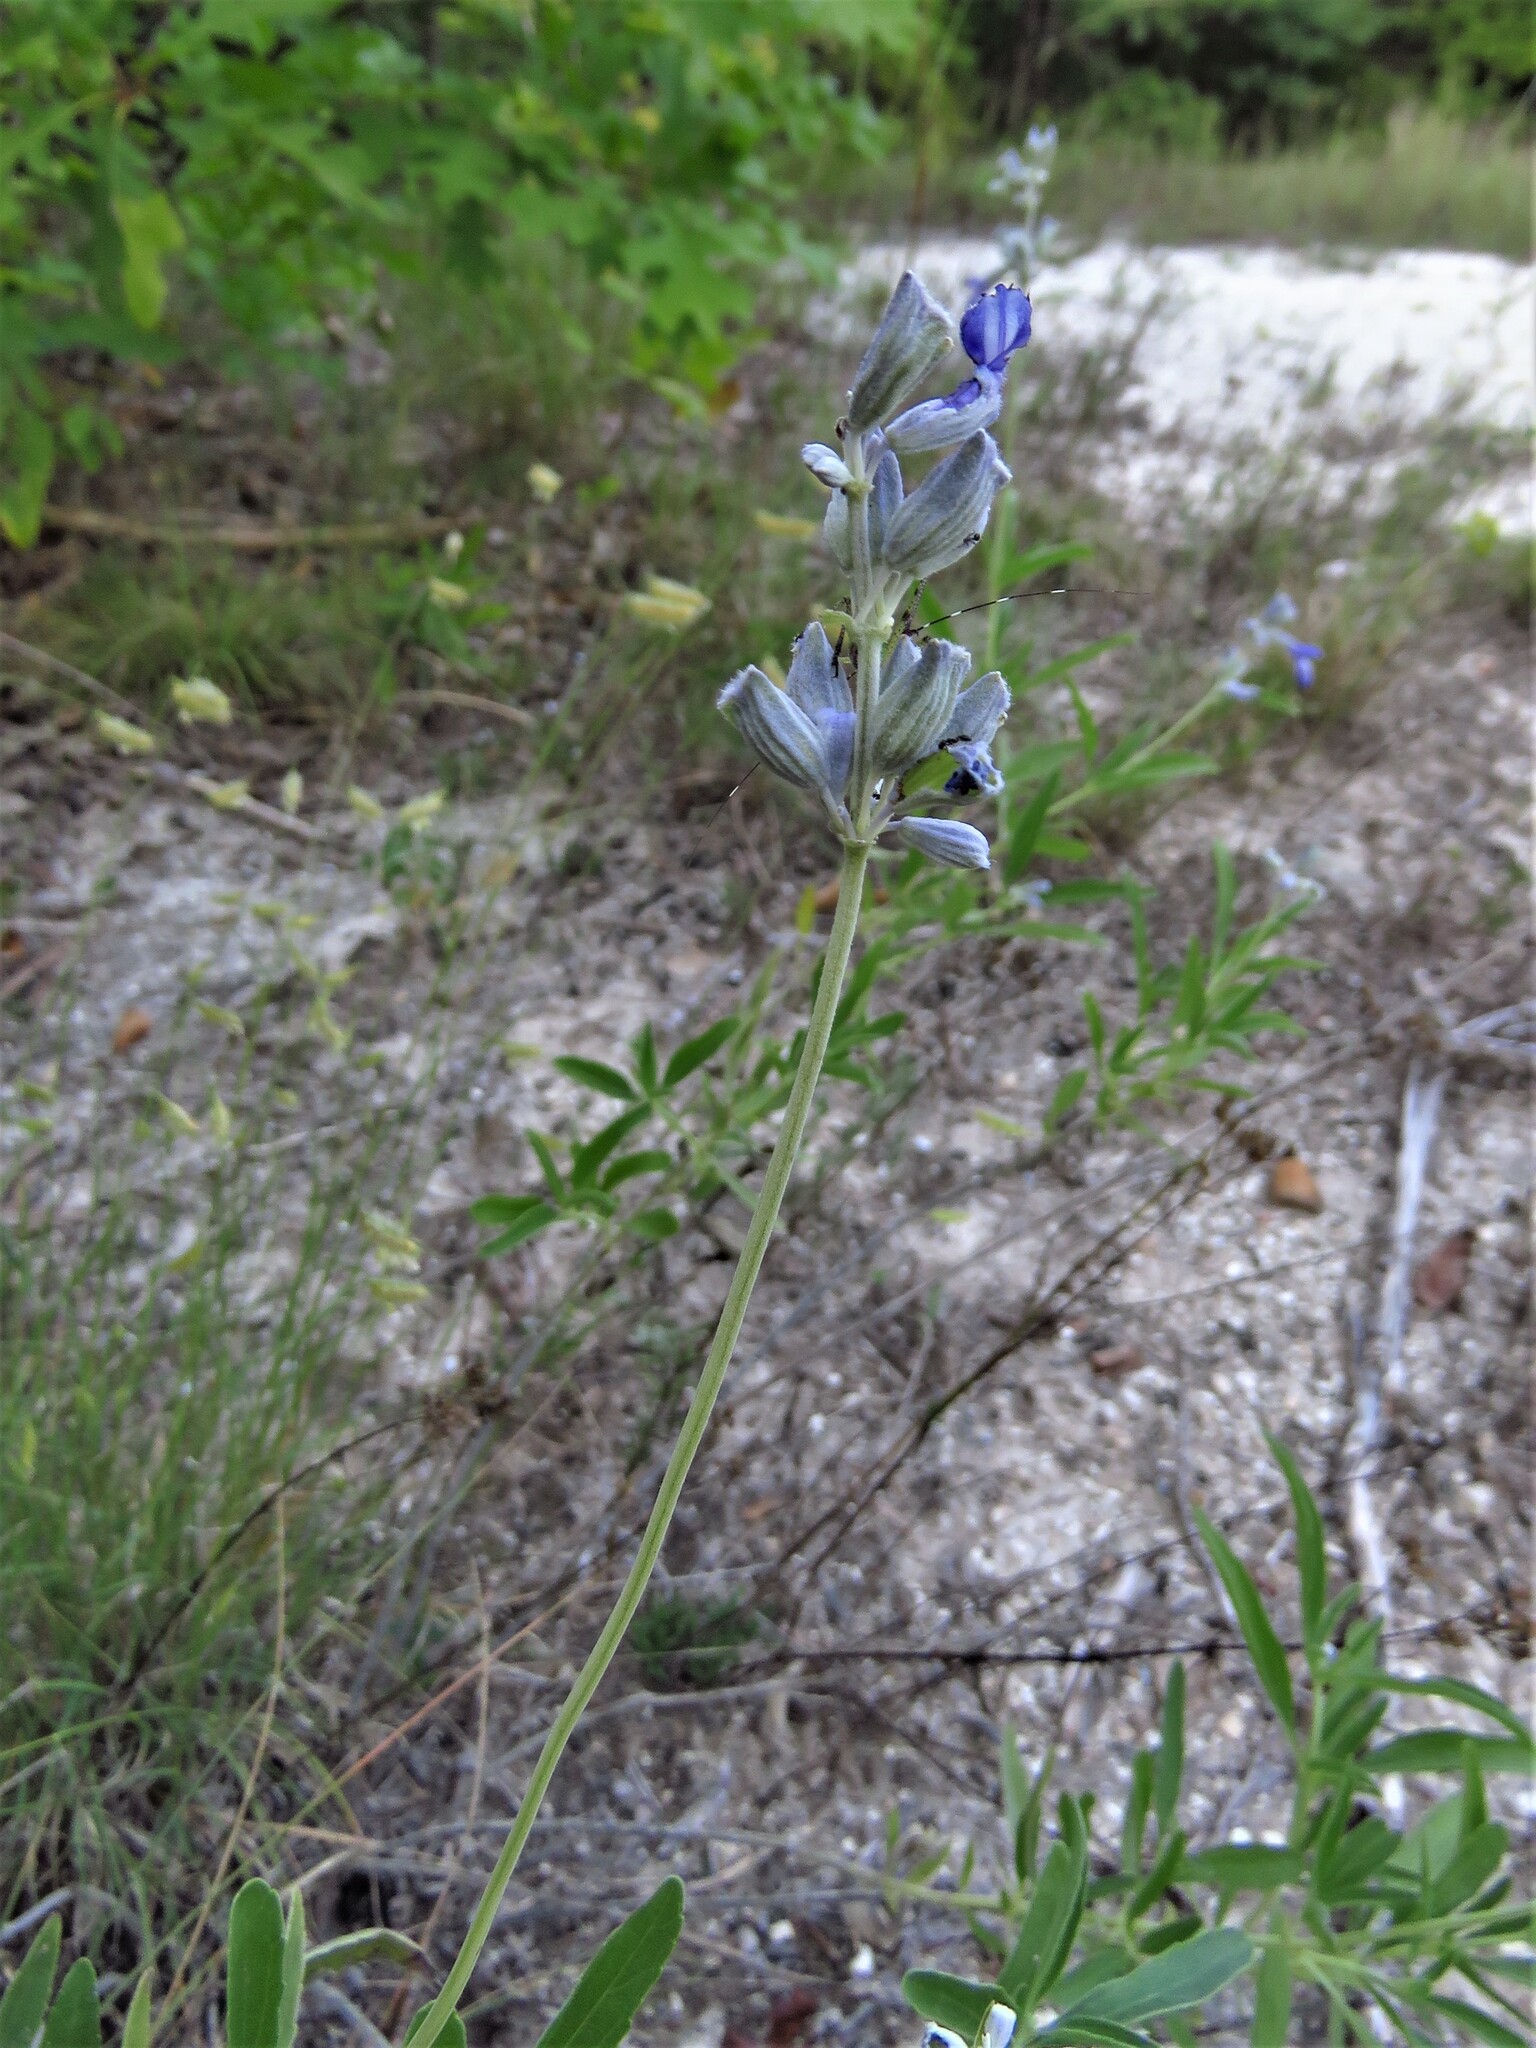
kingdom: Plantae
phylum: Tracheophyta
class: Magnoliopsida
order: Lamiales
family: Lamiaceae
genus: Salvia
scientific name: Salvia farinacea
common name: Mealy sage
